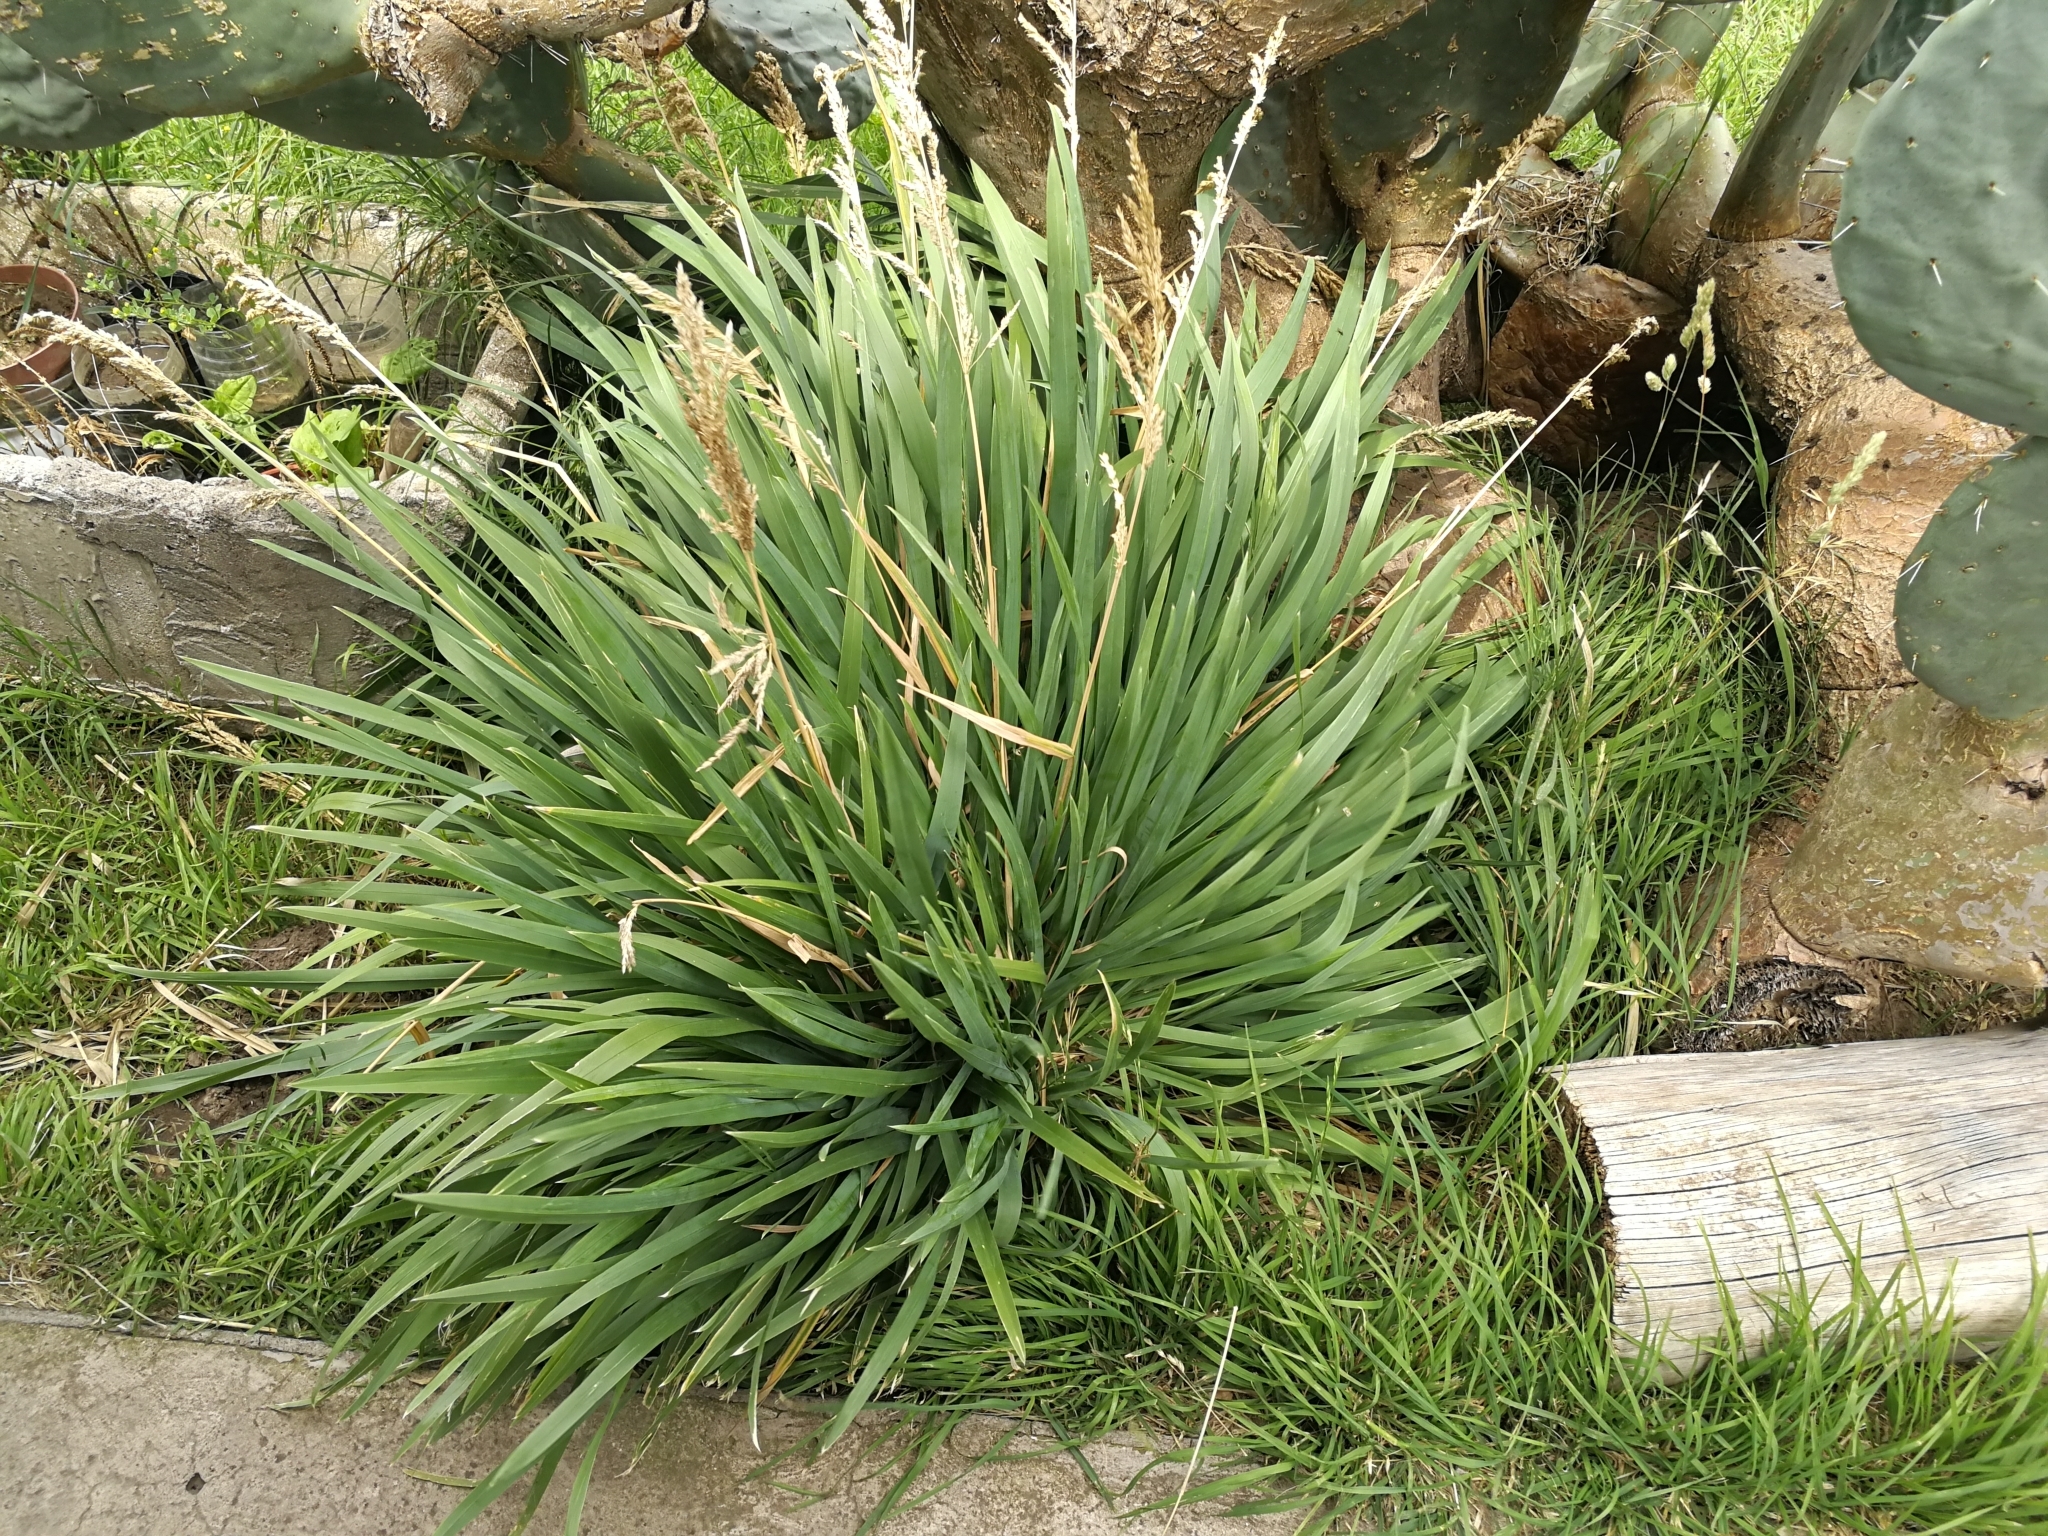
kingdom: Plantae
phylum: Tracheophyta
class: Liliopsida
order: Poales
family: Poaceae
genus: Poa
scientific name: Poa iridifolia
